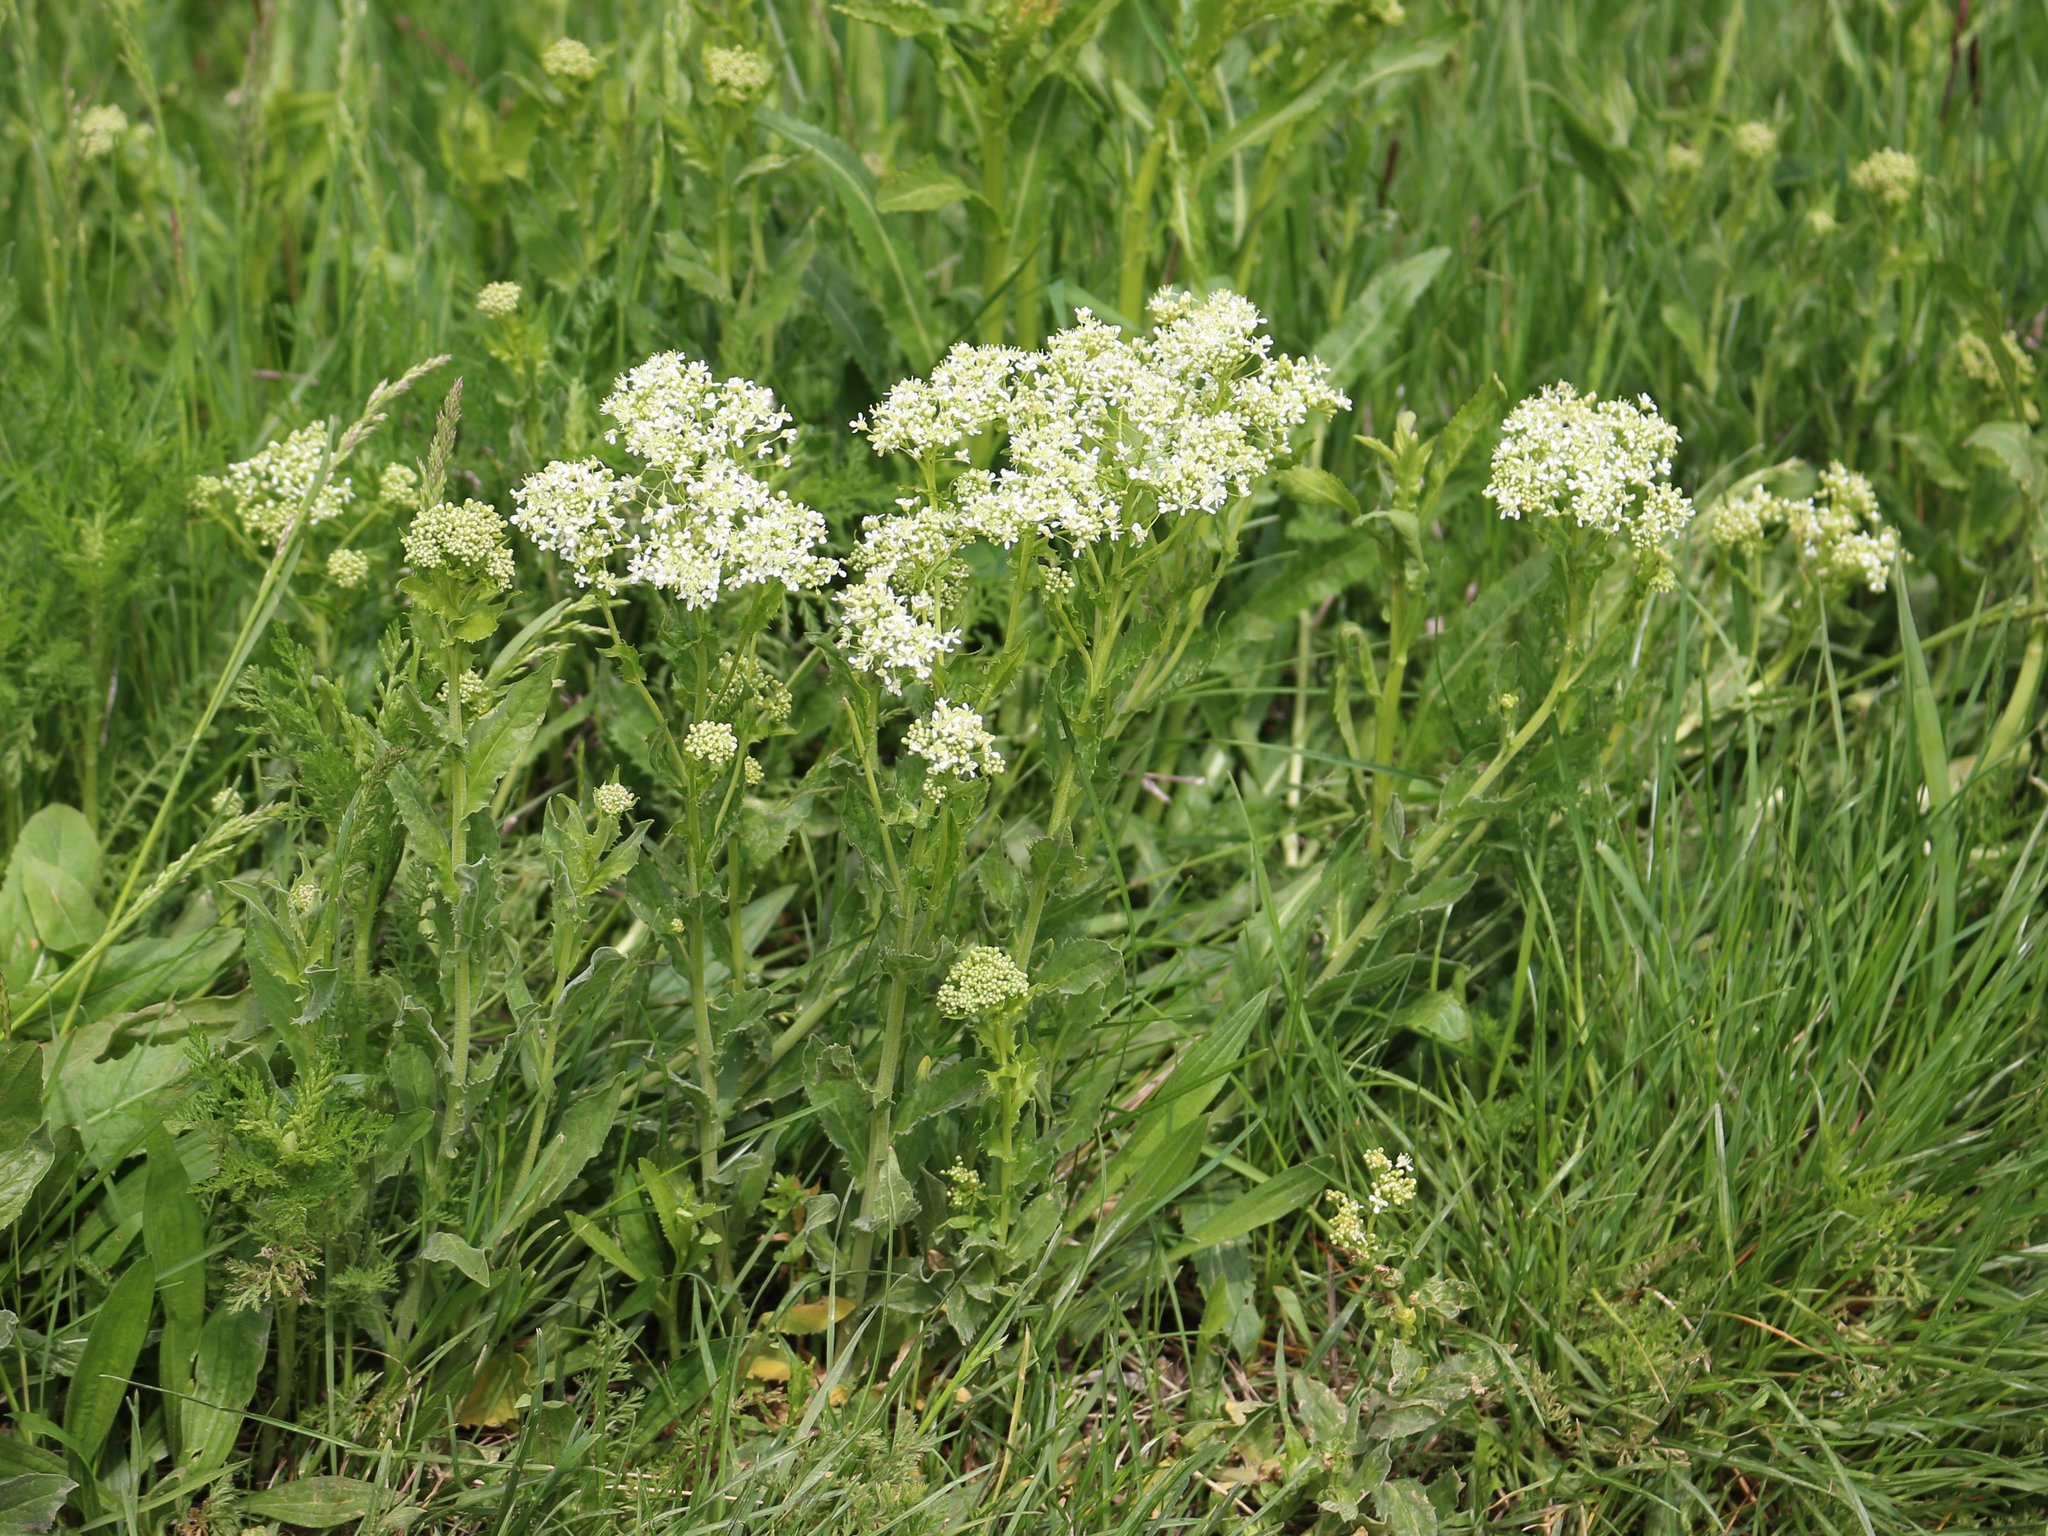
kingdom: Plantae
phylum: Tracheophyta
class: Magnoliopsida
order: Brassicales
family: Brassicaceae
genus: Lepidium
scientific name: Lepidium draba
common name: Hoary cress
